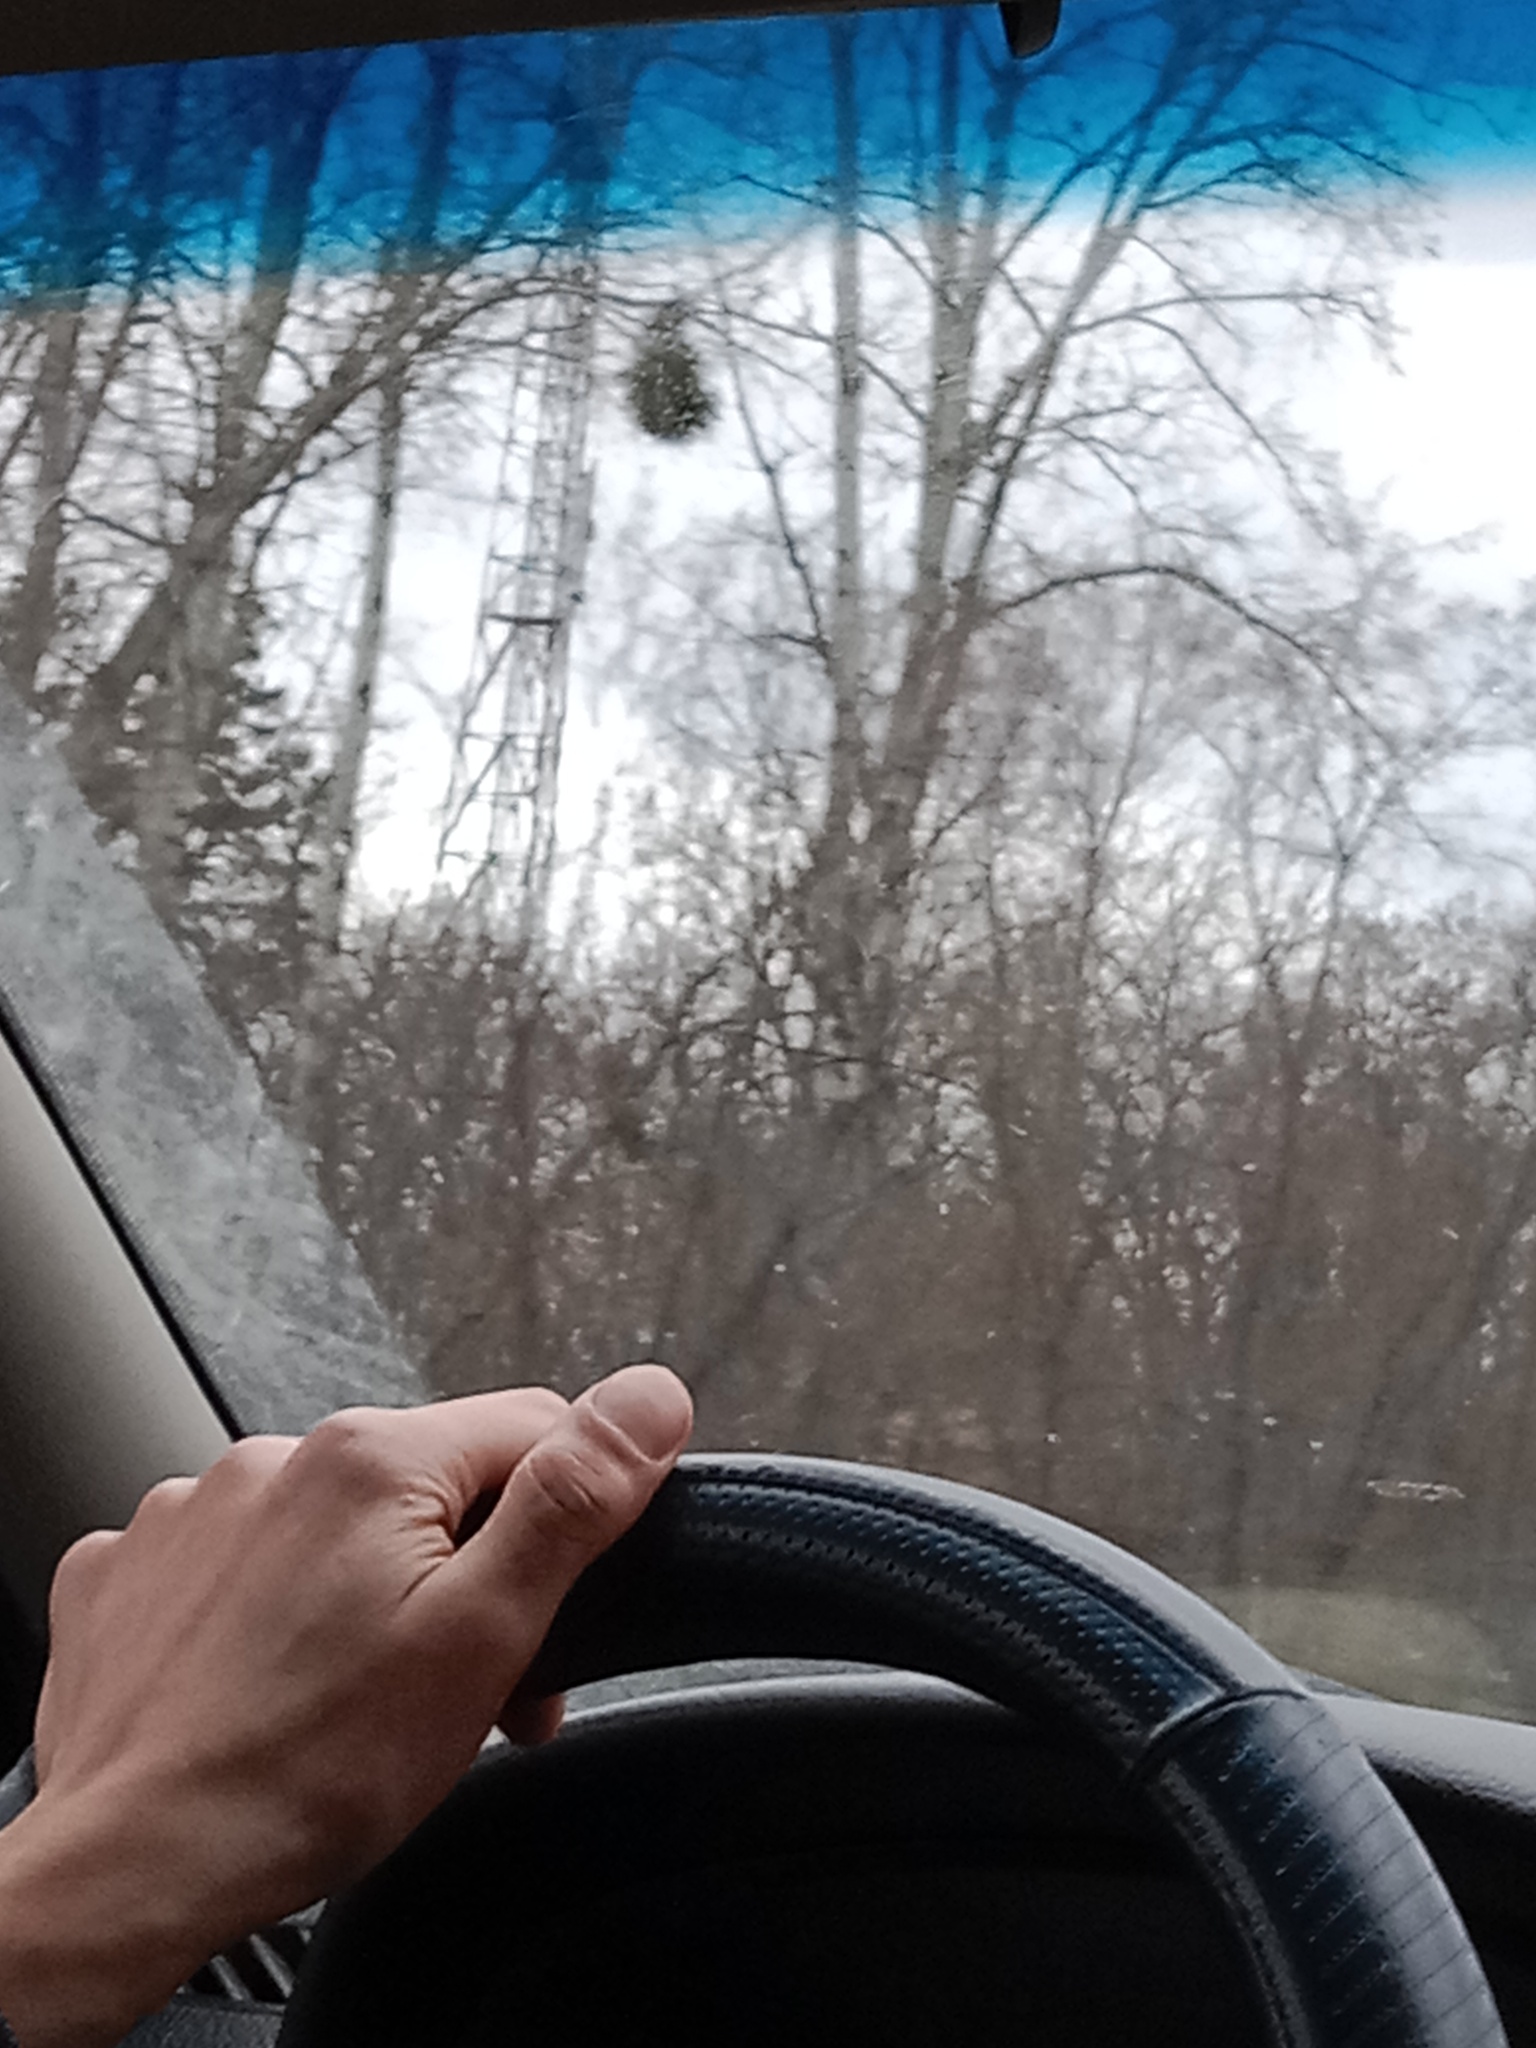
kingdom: Plantae
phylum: Tracheophyta
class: Magnoliopsida
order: Santalales
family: Viscaceae
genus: Viscum
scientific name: Viscum album
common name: Mistletoe
